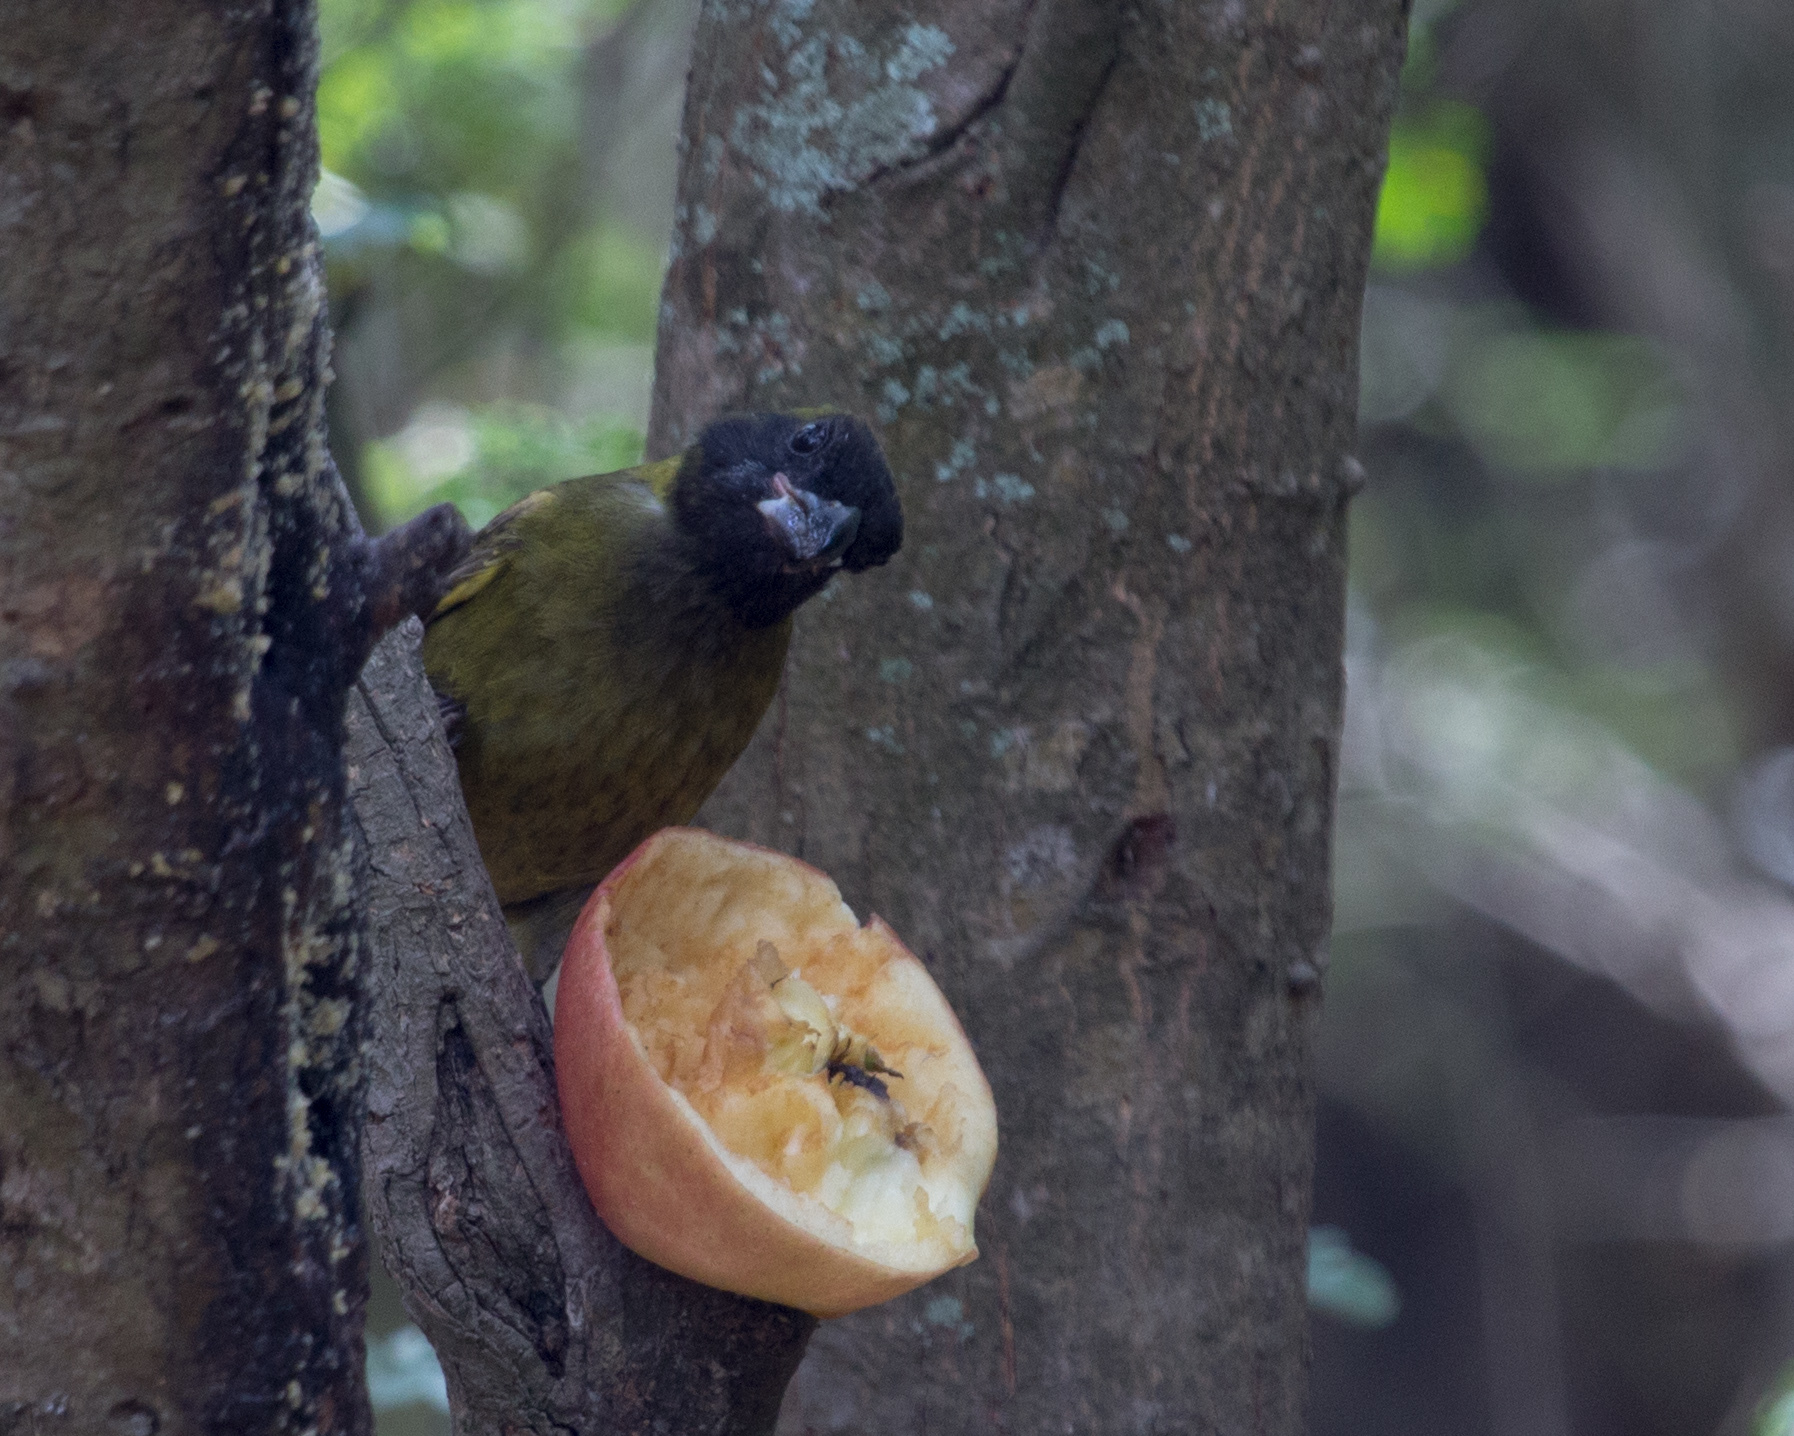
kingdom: Animalia
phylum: Chordata
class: Aves
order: Passeriformes
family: Cardinalidae
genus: Rhodothraupis
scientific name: Rhodothraupis celaeno
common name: Crimson-collared grosbeak
